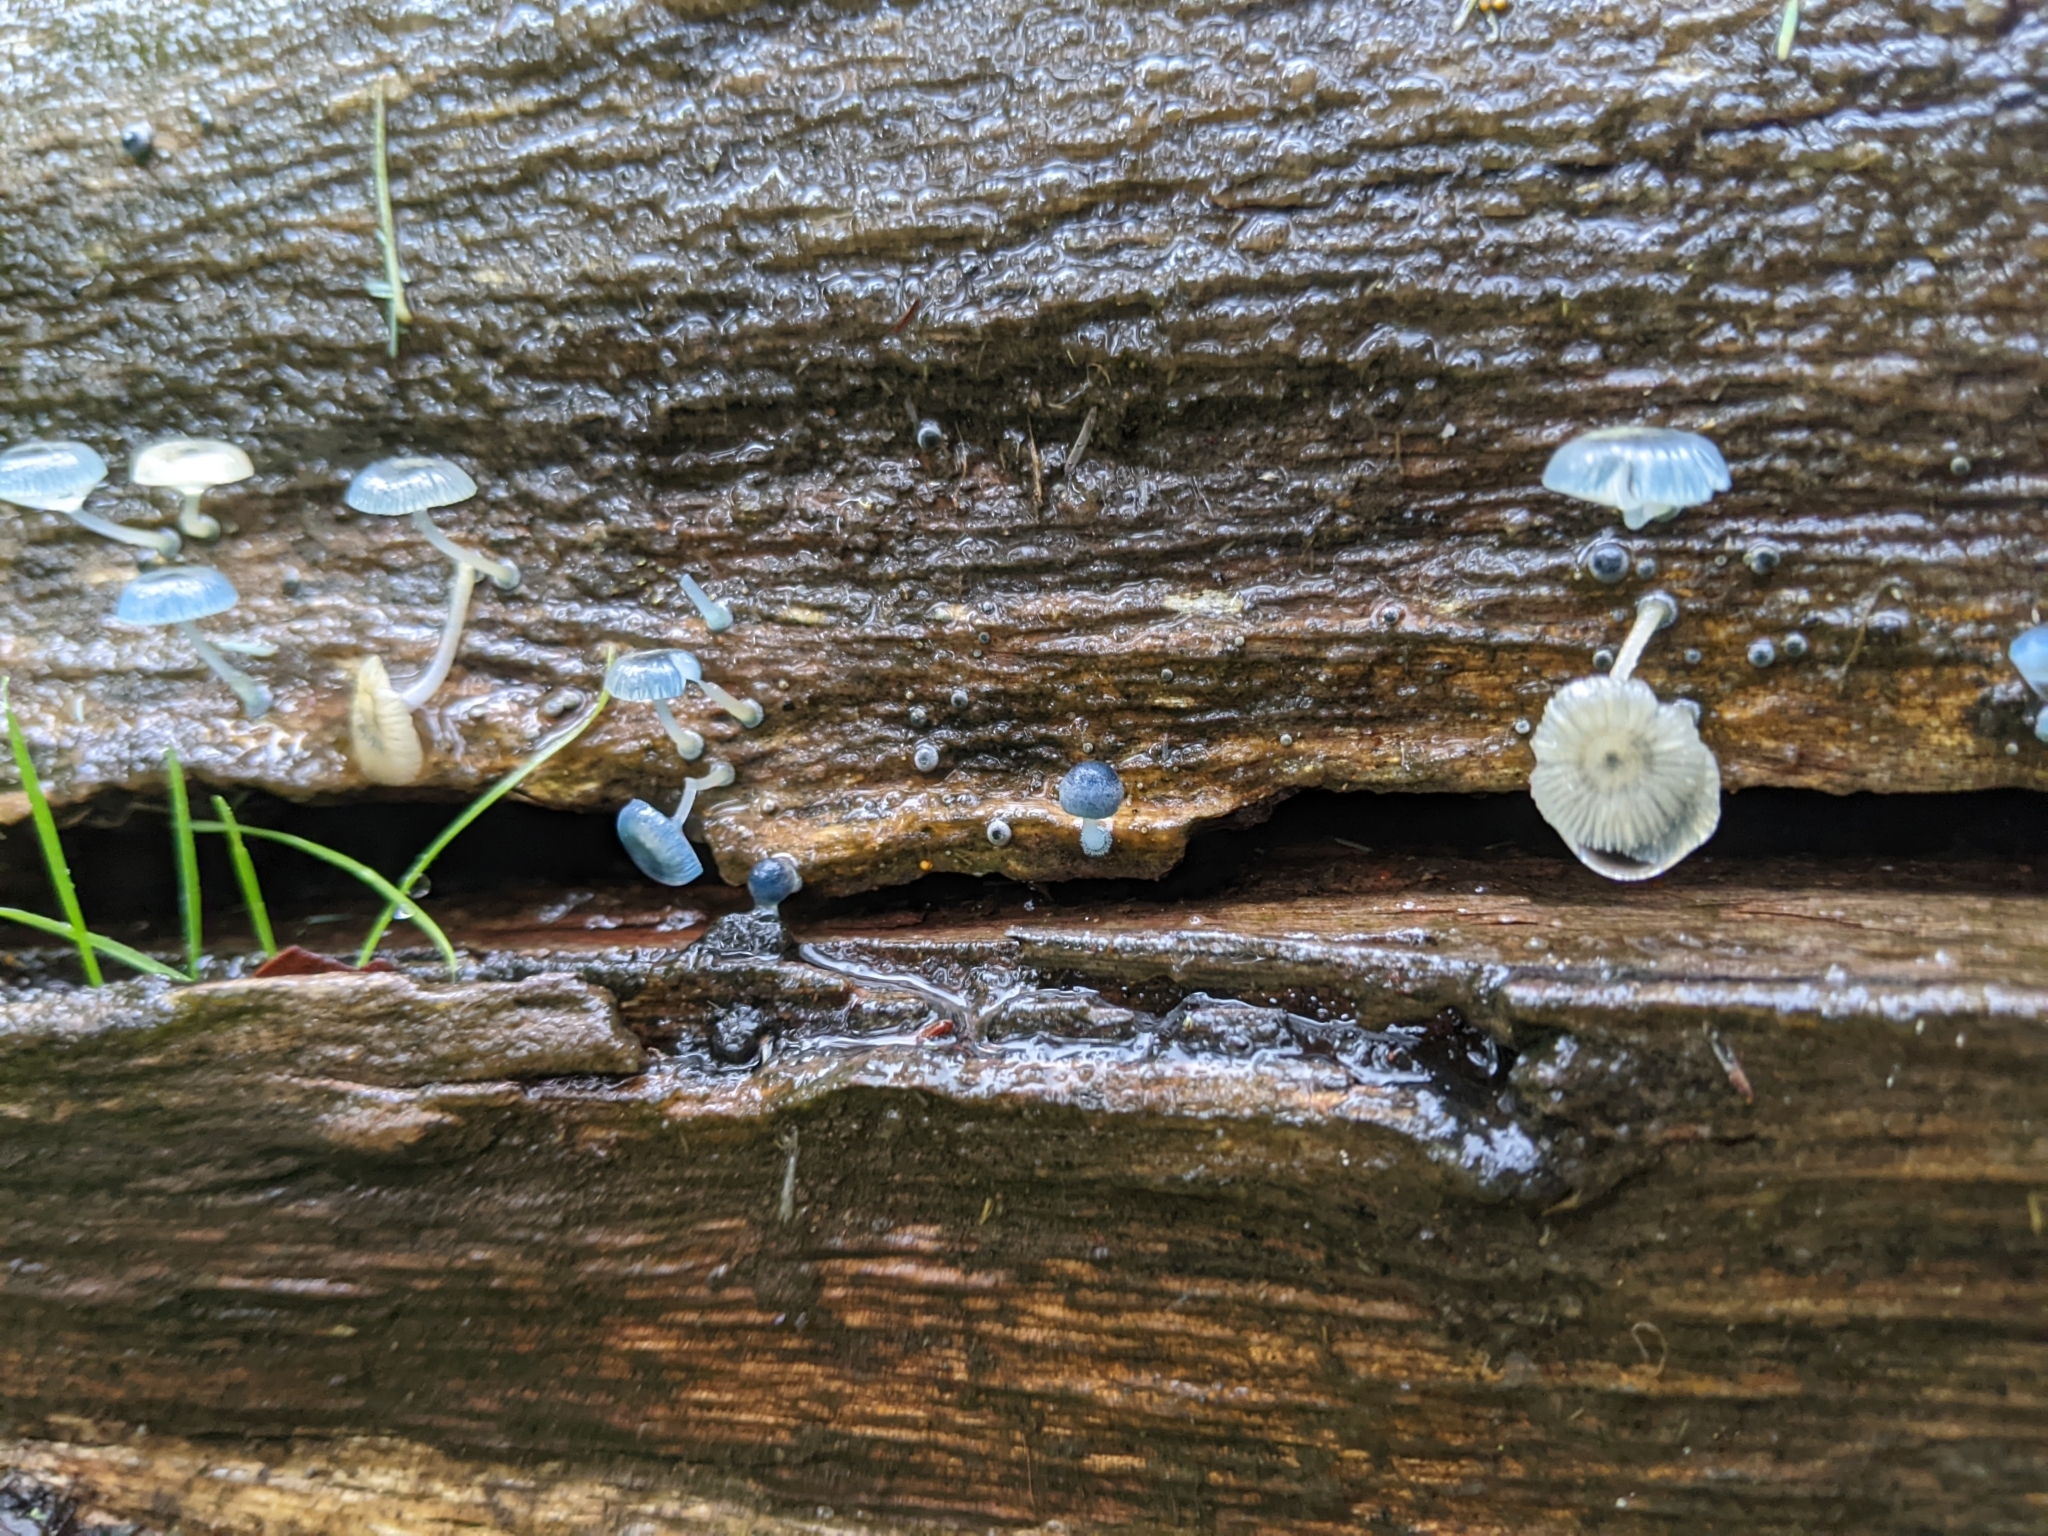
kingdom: Fungi
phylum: Basidiomycota
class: Agaricomycetes
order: Agaricales
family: Mycenaceae
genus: Mycena
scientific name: Mycena interrupta
